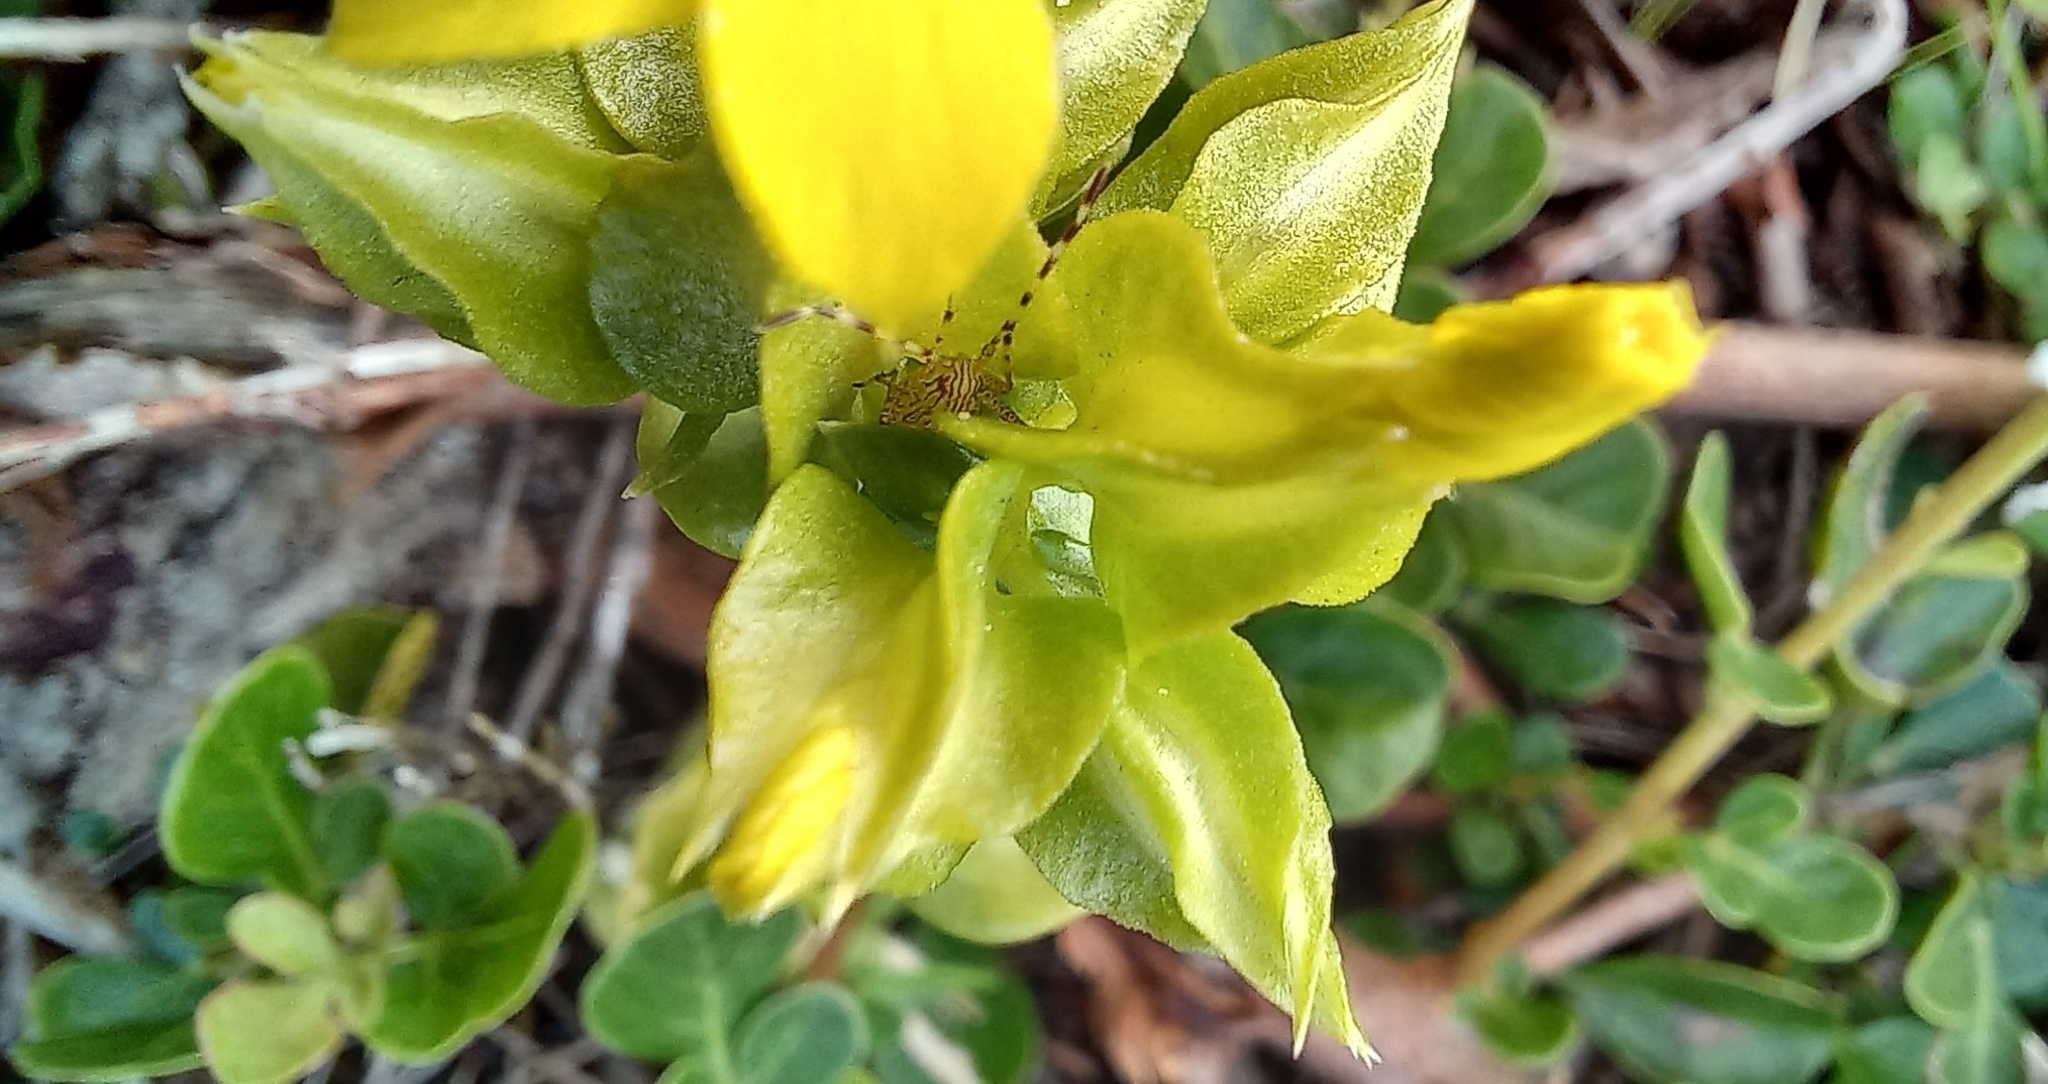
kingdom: Plantae
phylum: Tracheophyta
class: Magnoliopsida
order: Gentianales
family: Gentianaceae
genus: Sebaea
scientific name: Sebaea exacoides
